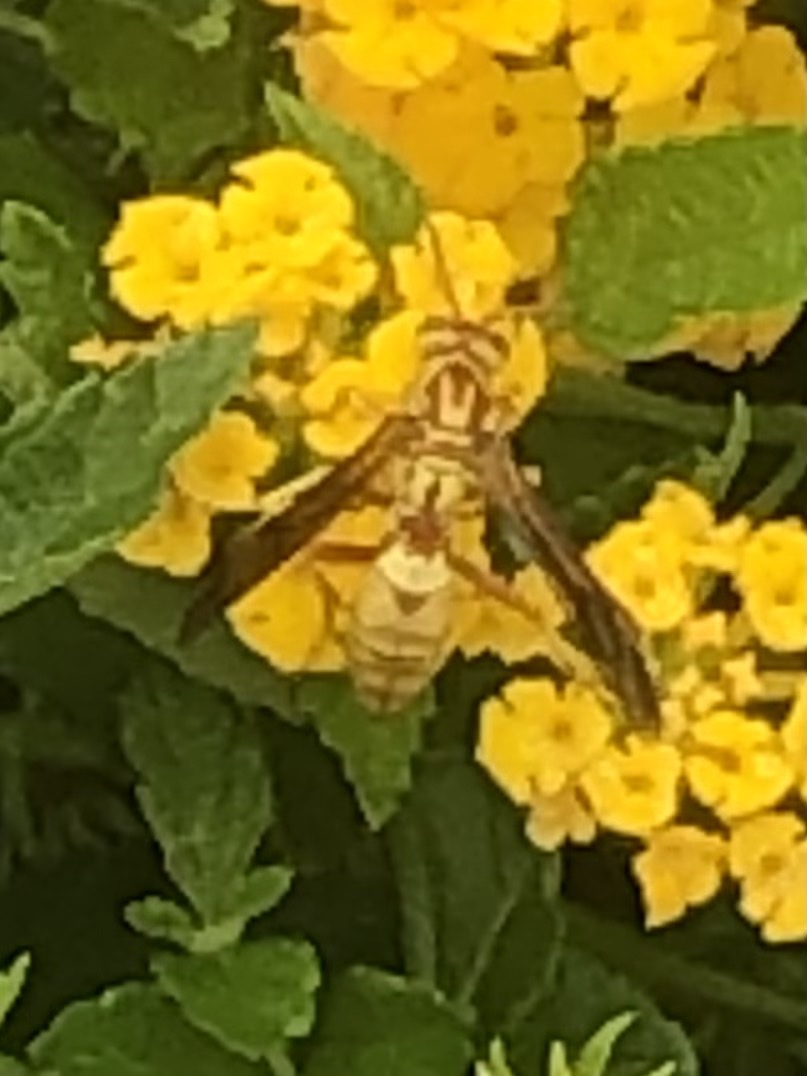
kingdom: Animalia
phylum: Arthropoda
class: Insecta
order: Hymenoptera
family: Eumenidae
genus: Polistes
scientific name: Polistes aurifer
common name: Paper wasp
